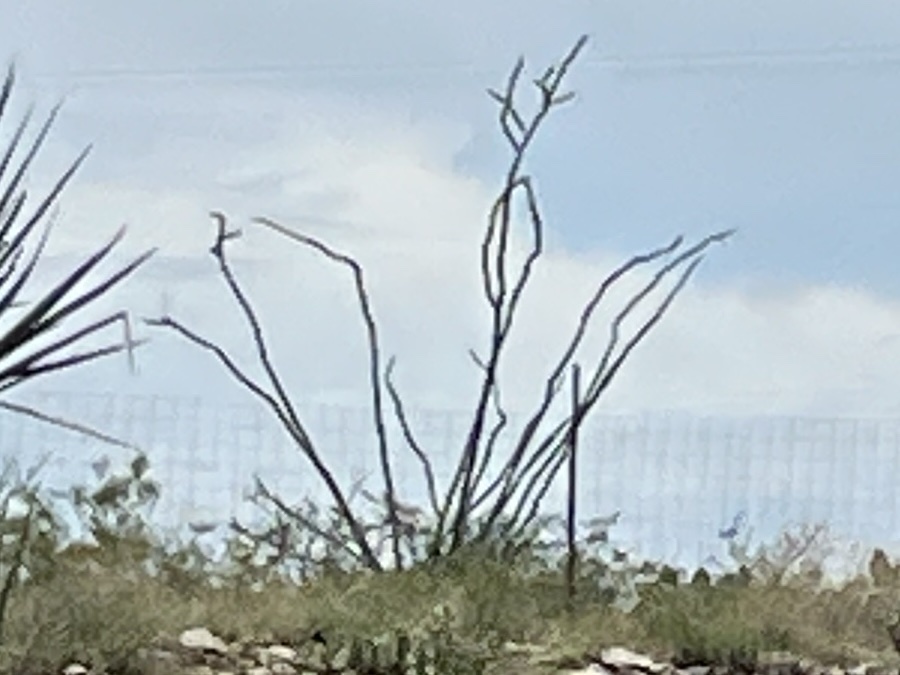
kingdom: Plantae
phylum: Tracheophyta
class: Magnoliopsida
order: Ericales
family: Fouquieriaceae
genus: Fouquieria
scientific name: Fouquieria splendens
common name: Vine-cactus
